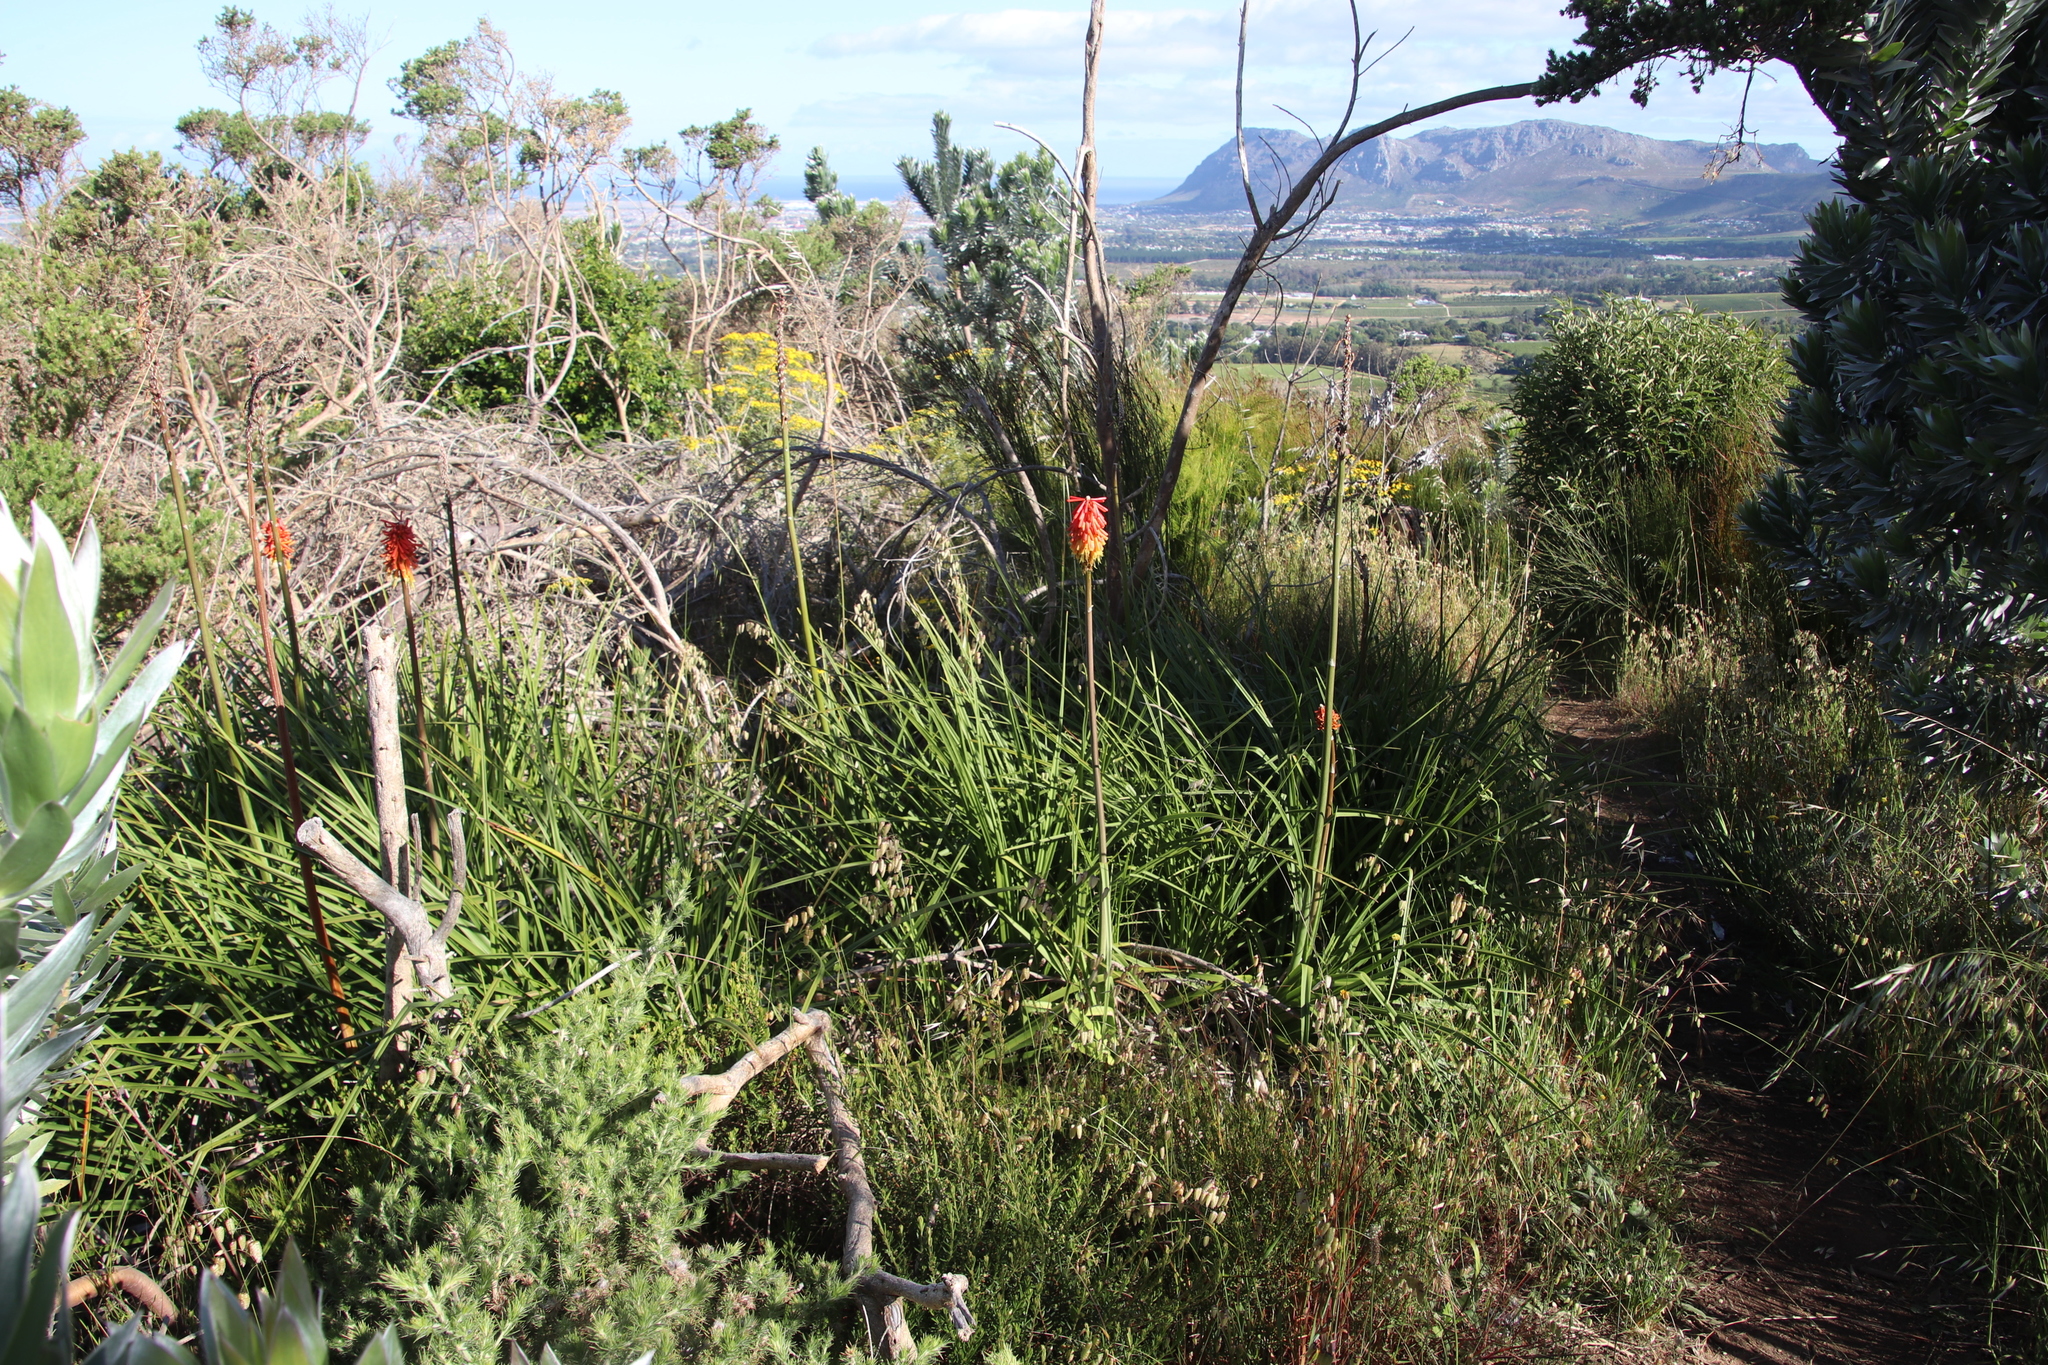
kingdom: Plantae
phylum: Tracheophyta
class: Liliopsida
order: Asparagales
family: Asphodelaceae
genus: Kniphofia
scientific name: Kniphofia uvaria
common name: Red-hot-poker
